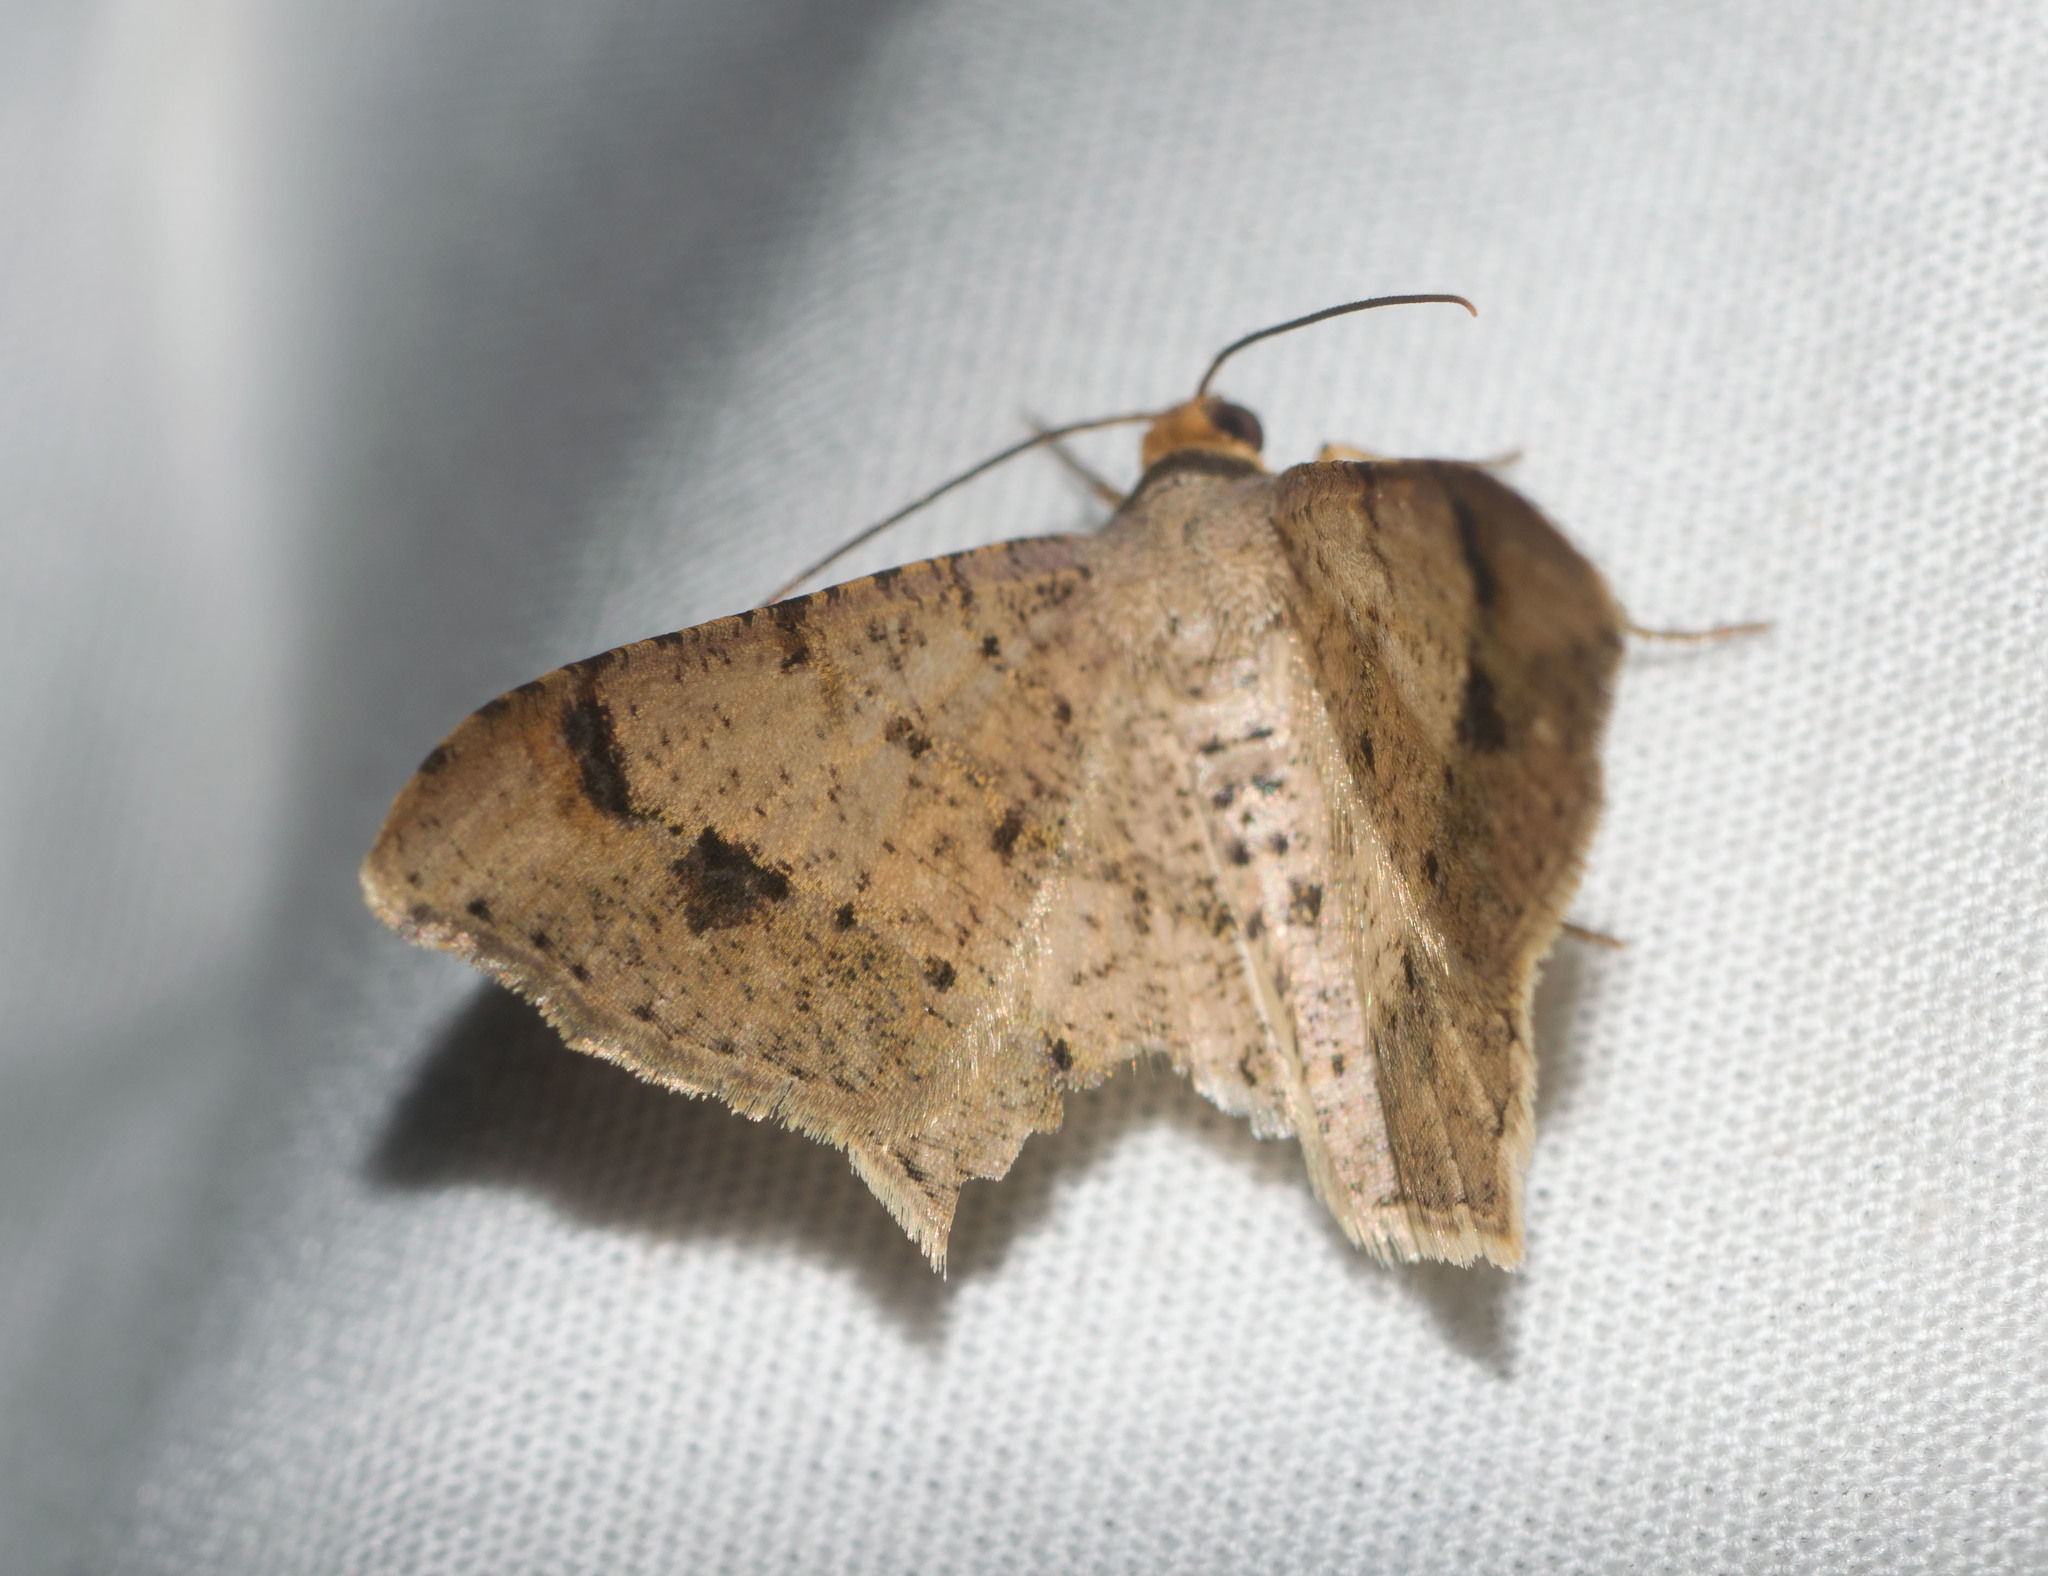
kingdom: Animalia
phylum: Arthropoda
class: Insecta
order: Lepidoptera
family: Geometridae
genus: Macaria
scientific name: Macaria abydata
